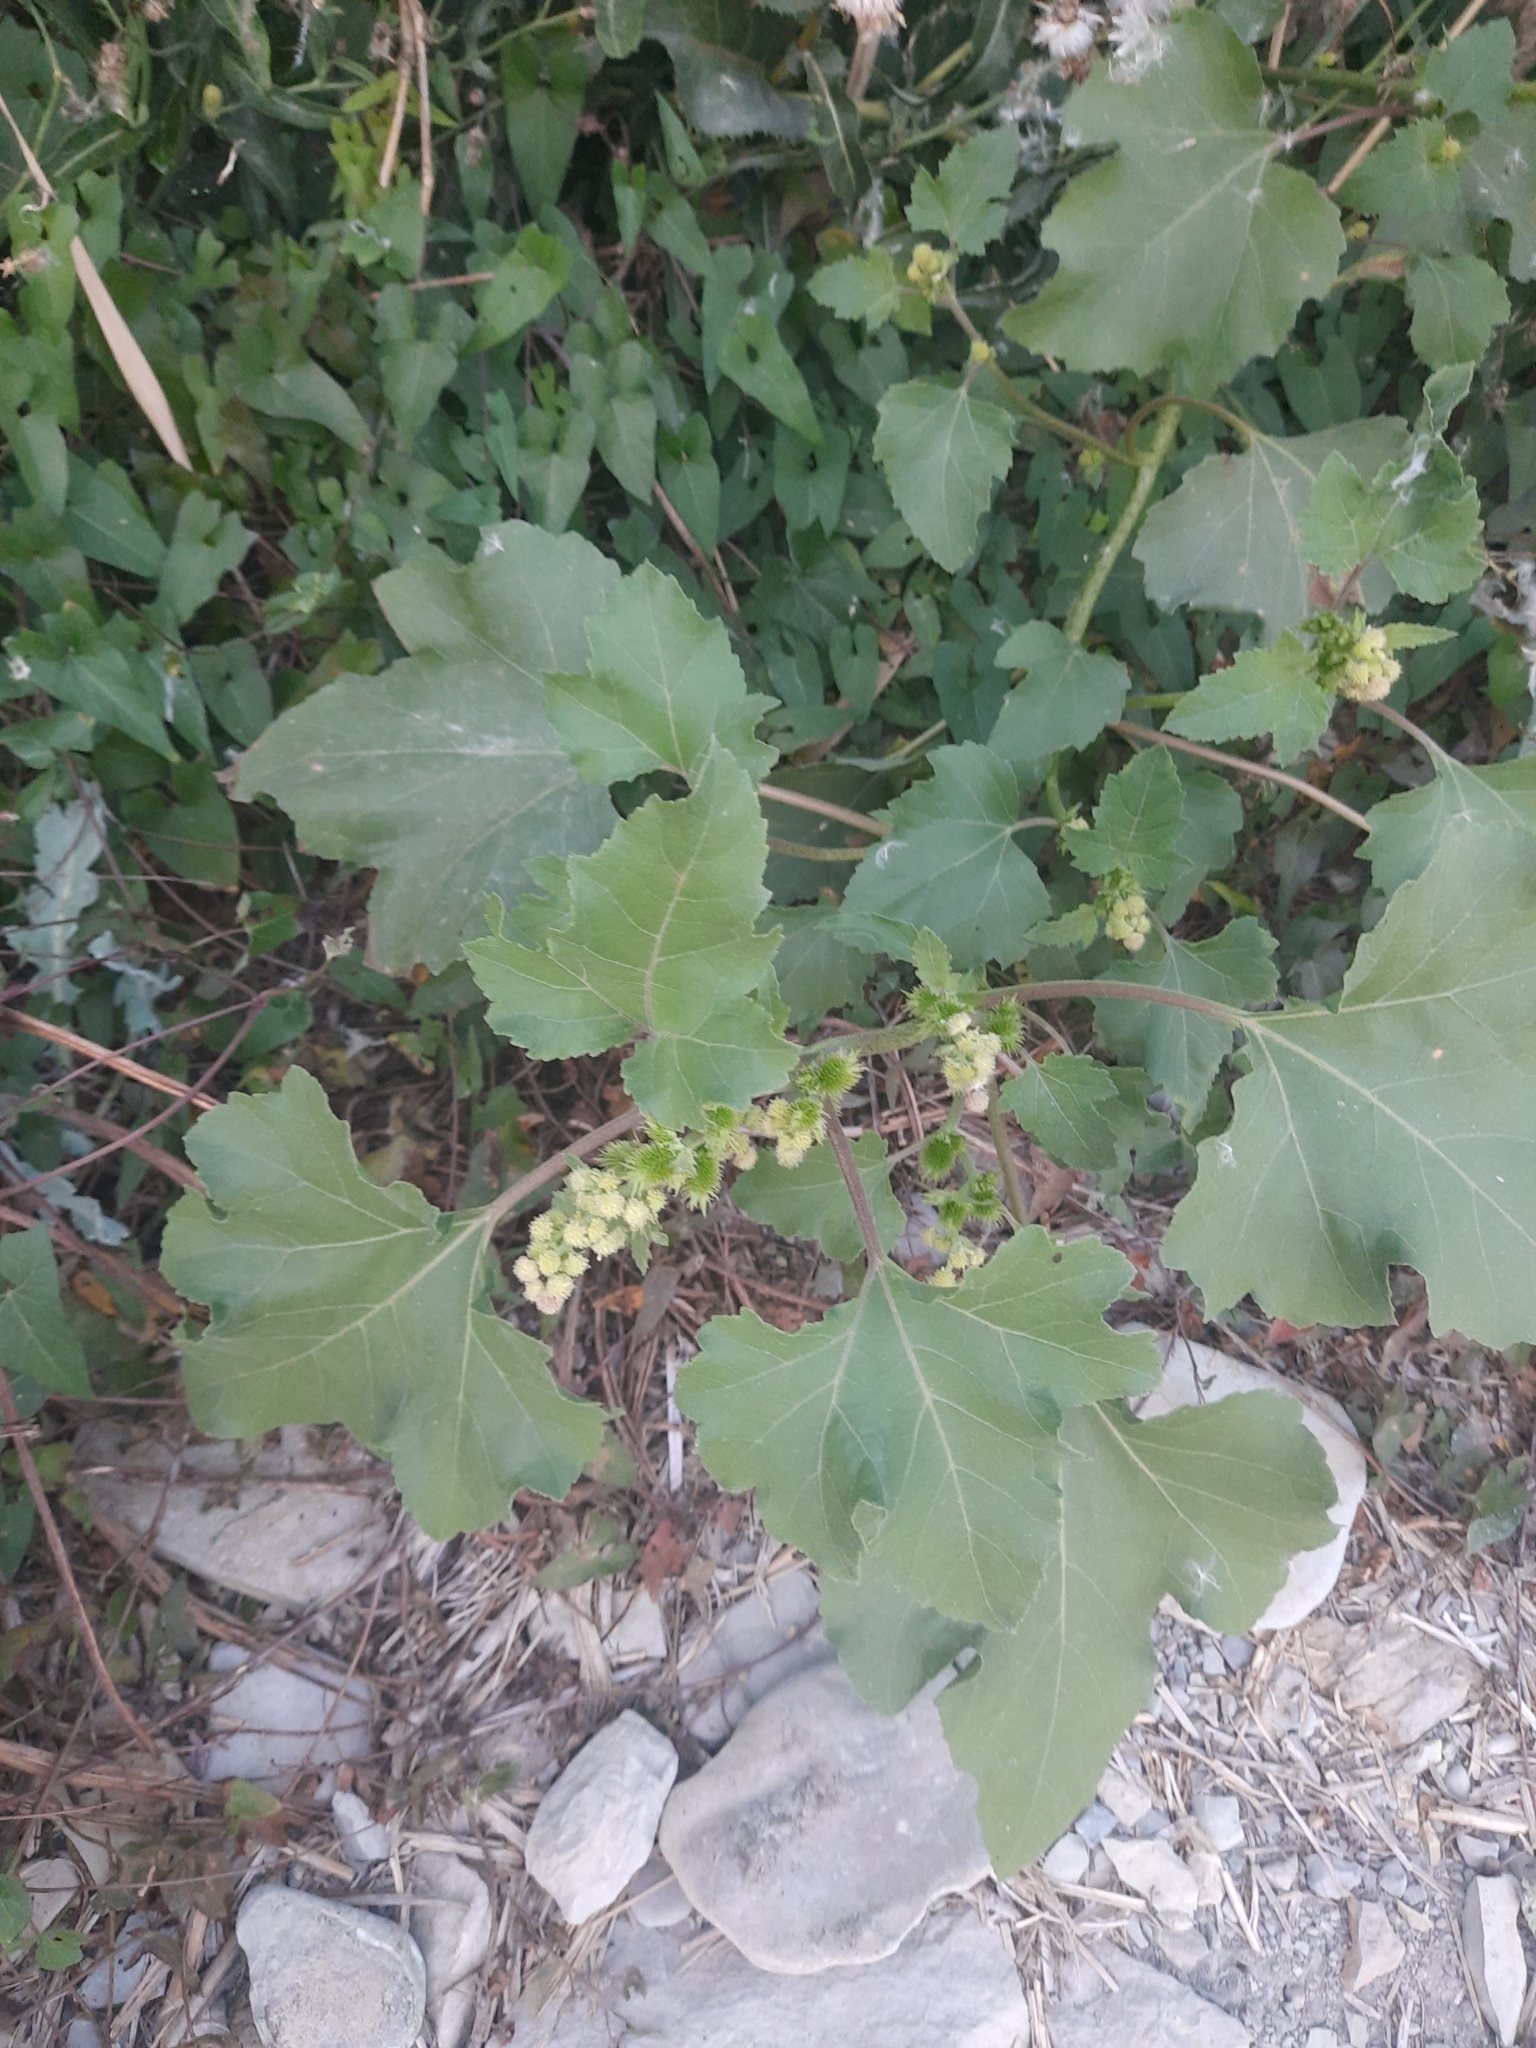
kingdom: Plantae
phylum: Tracheophyta
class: Magnoliopsida
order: Asterales
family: Asteraceae
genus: Xanthium
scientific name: Xanthium orientale
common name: Californian burr
